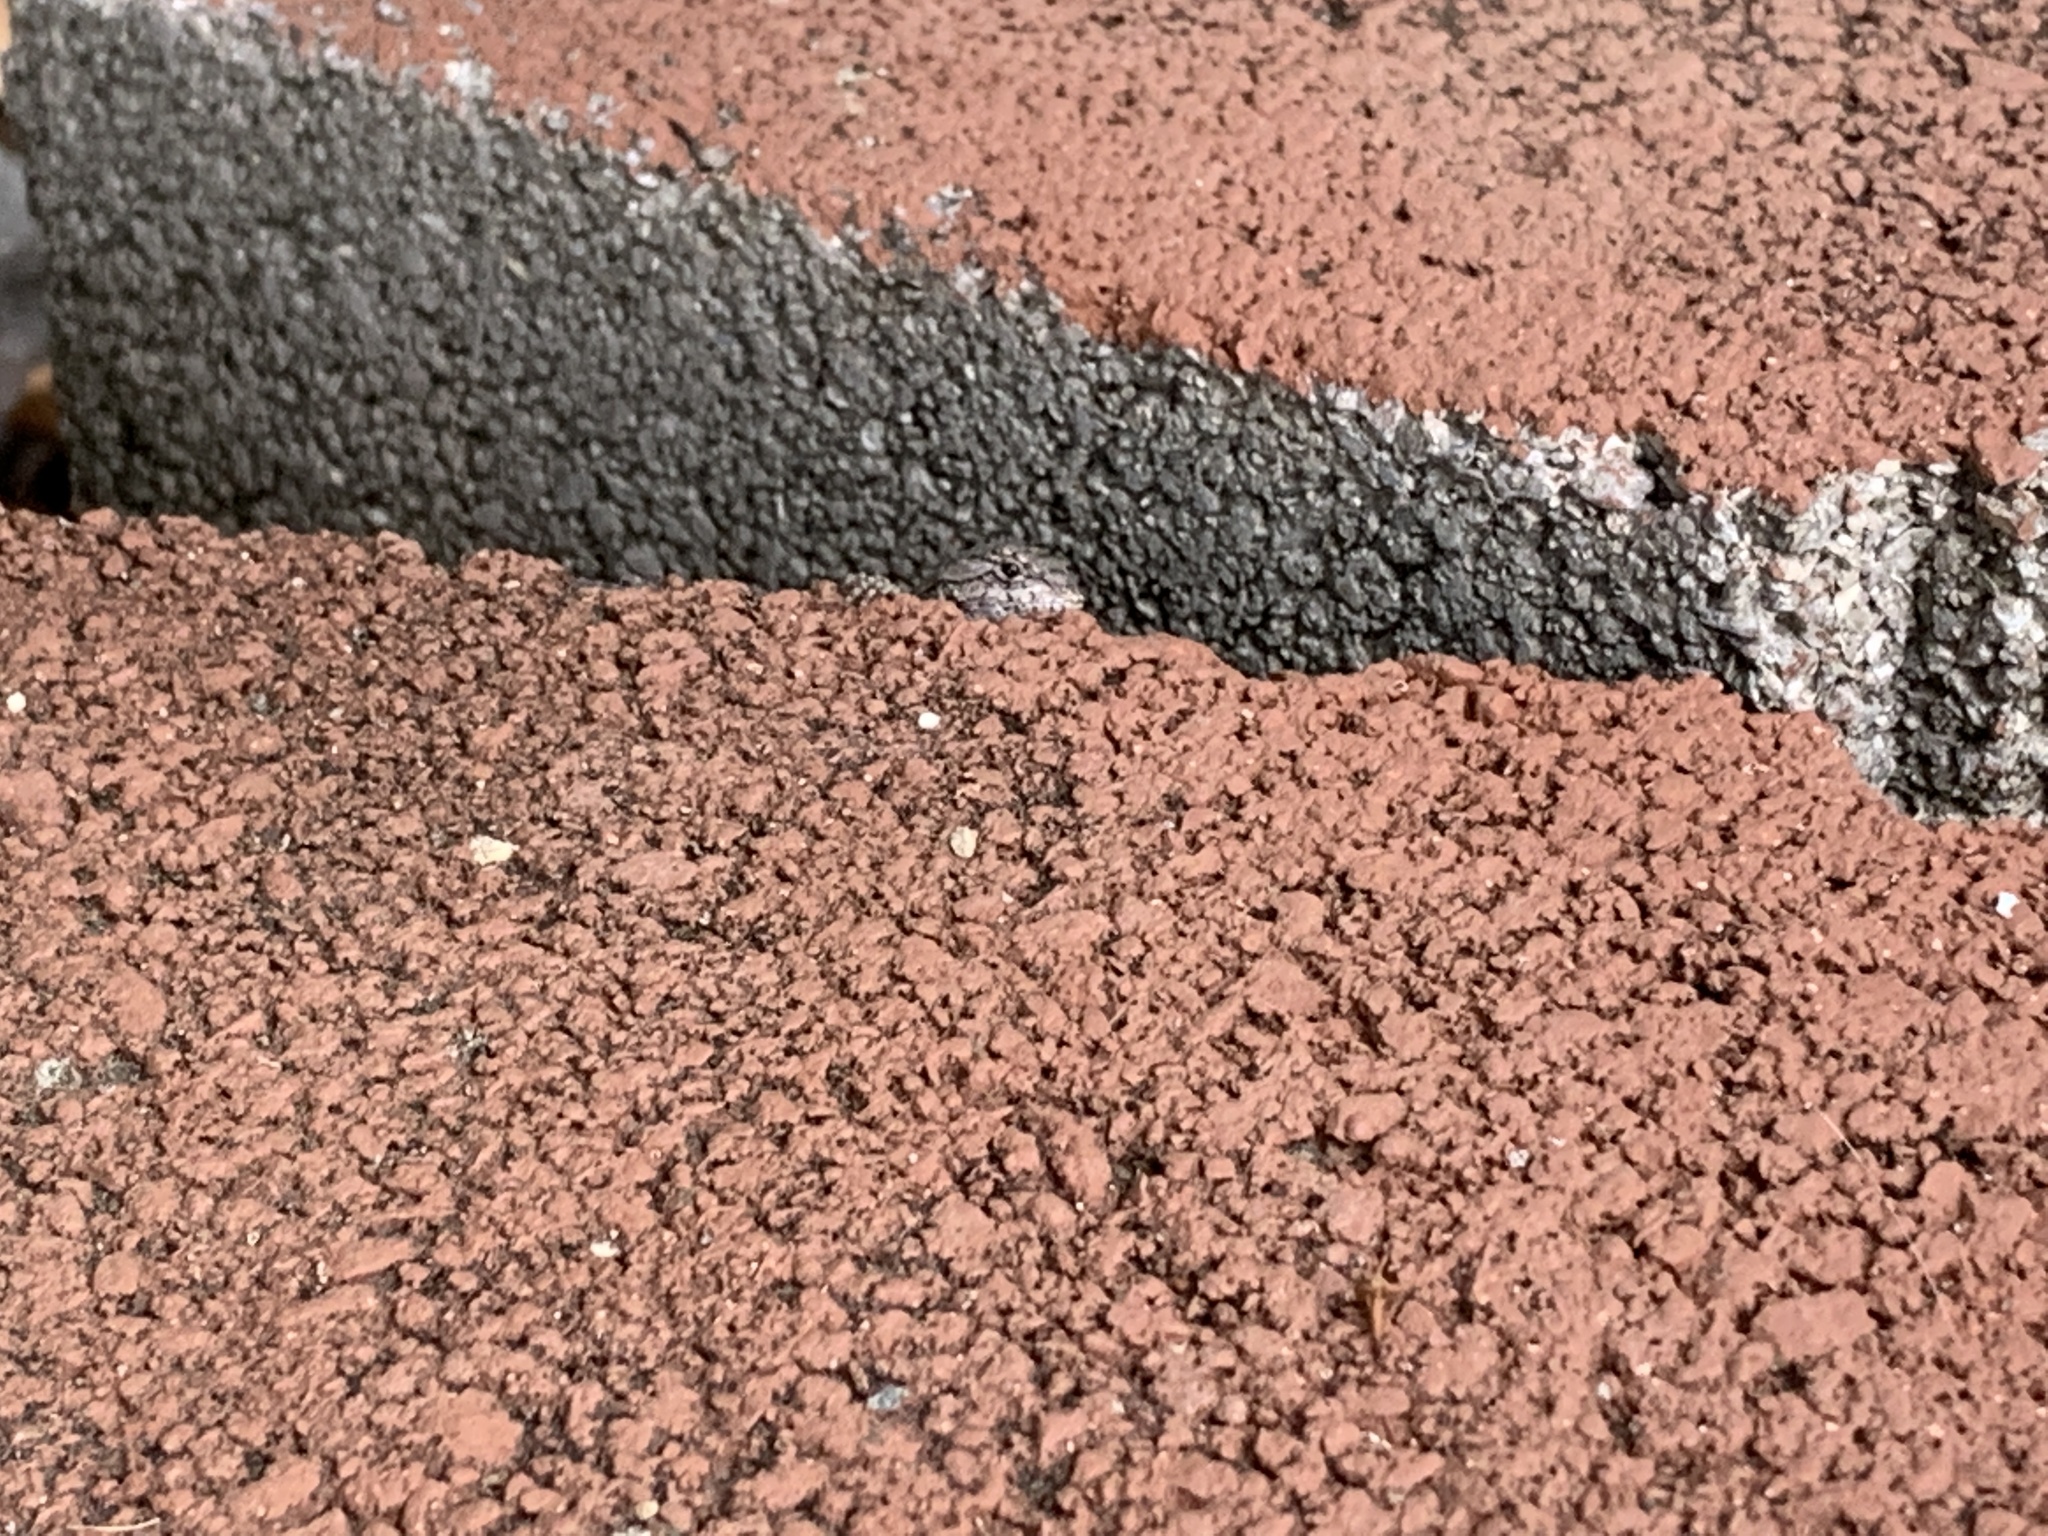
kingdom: Animalia
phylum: Chordata
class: Squamata
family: Phrynosomatidae
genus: Sceloporus
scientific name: Sceloporus undulatus
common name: Eastern fence lizard
